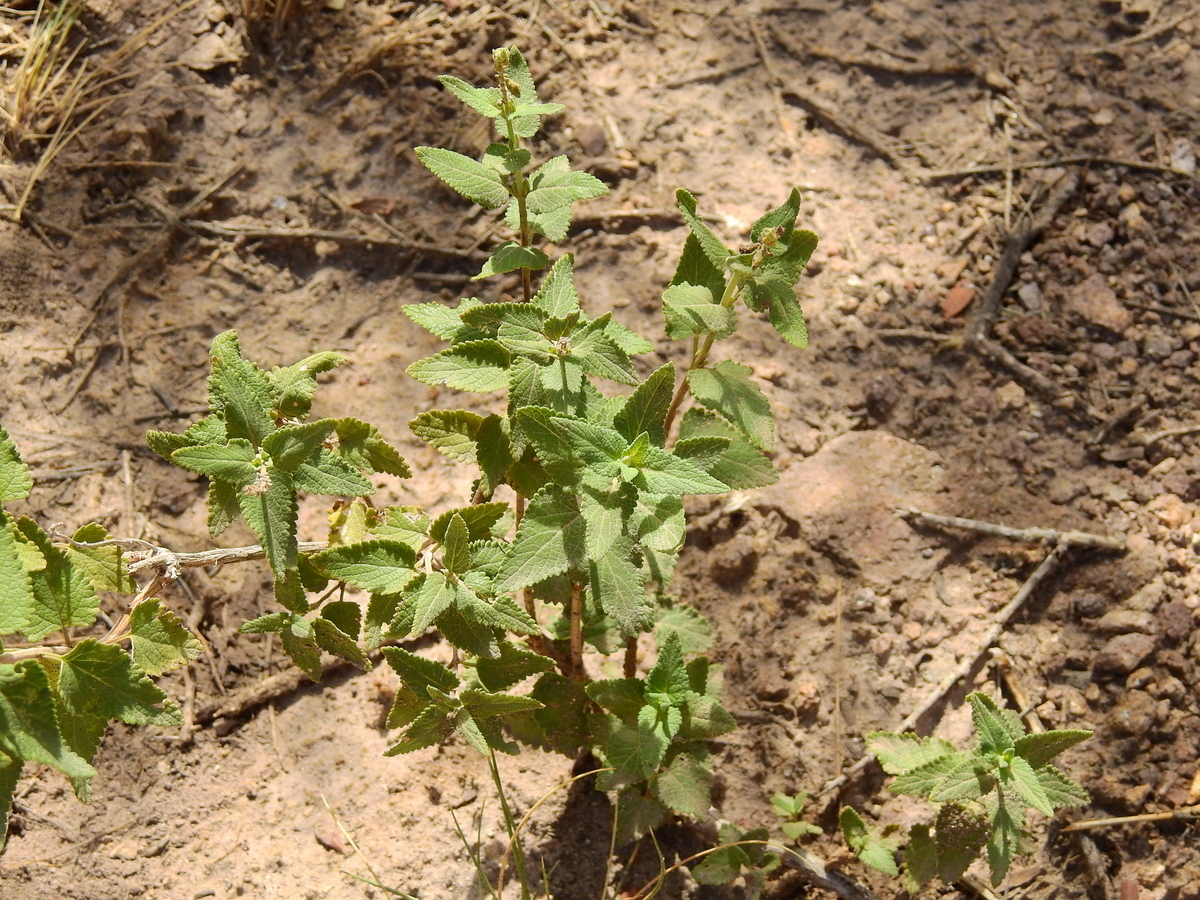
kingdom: Plantae
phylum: Tracheophyta
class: Magnoliopsida
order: Lamiales
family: Lamiaceae
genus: Salvia
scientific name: Salvia cuspidata
